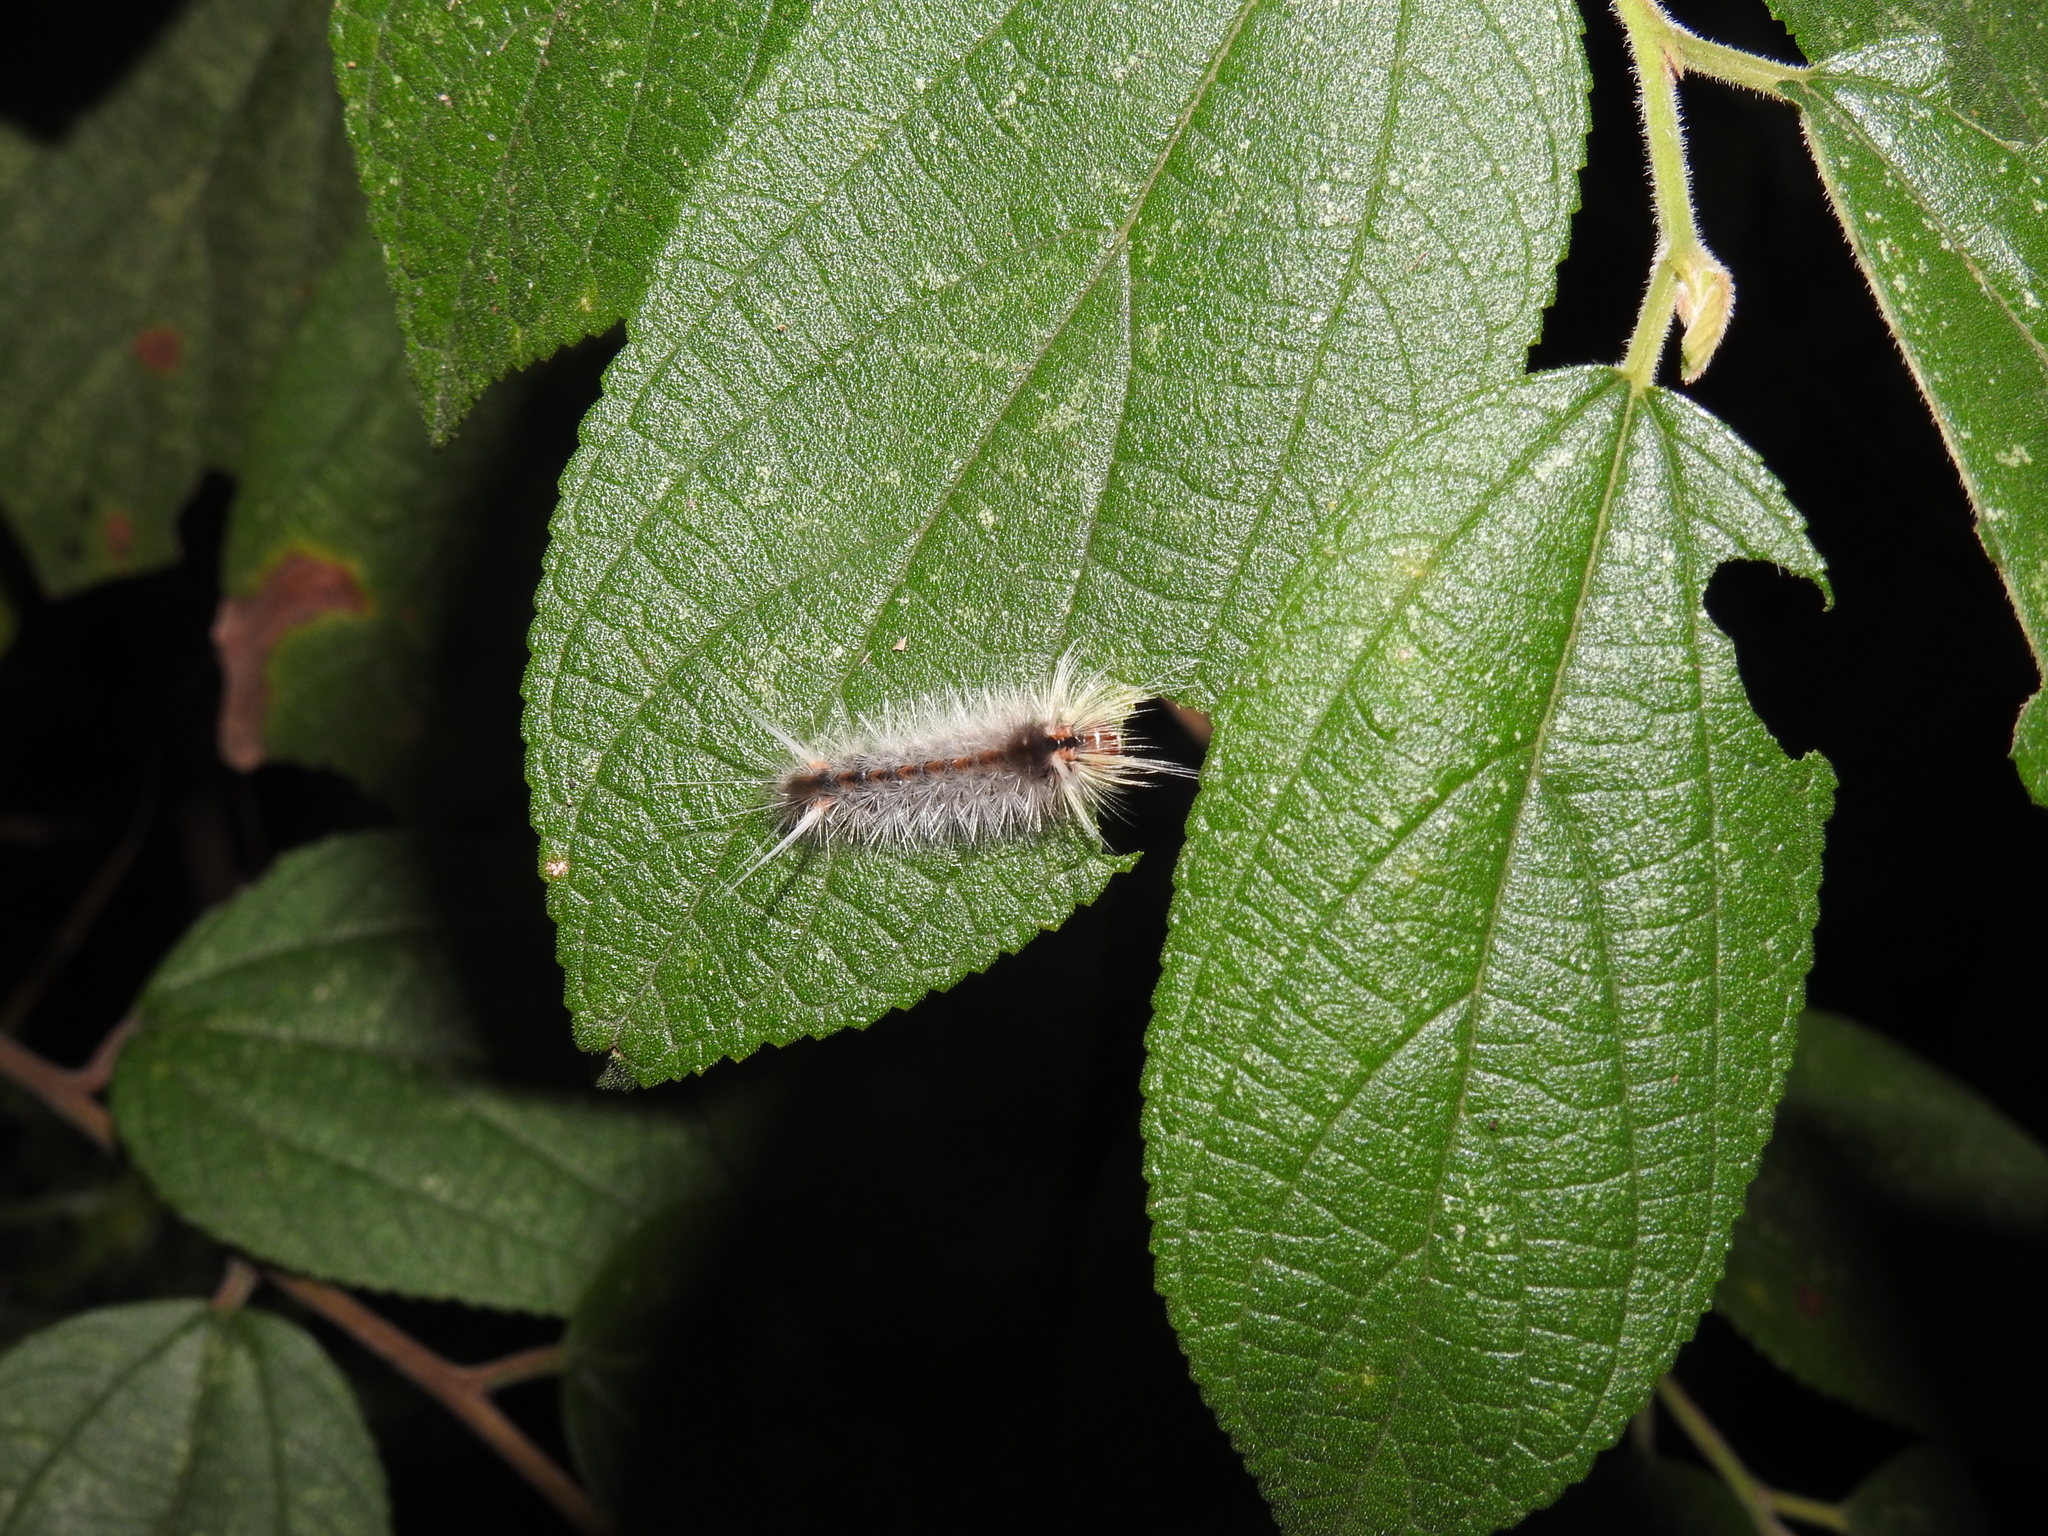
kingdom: Animalia
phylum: Arthropoda
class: Insecta
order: Lepidoptera
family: Erebidae
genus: Halysidota
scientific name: Halysidota cinctipes
